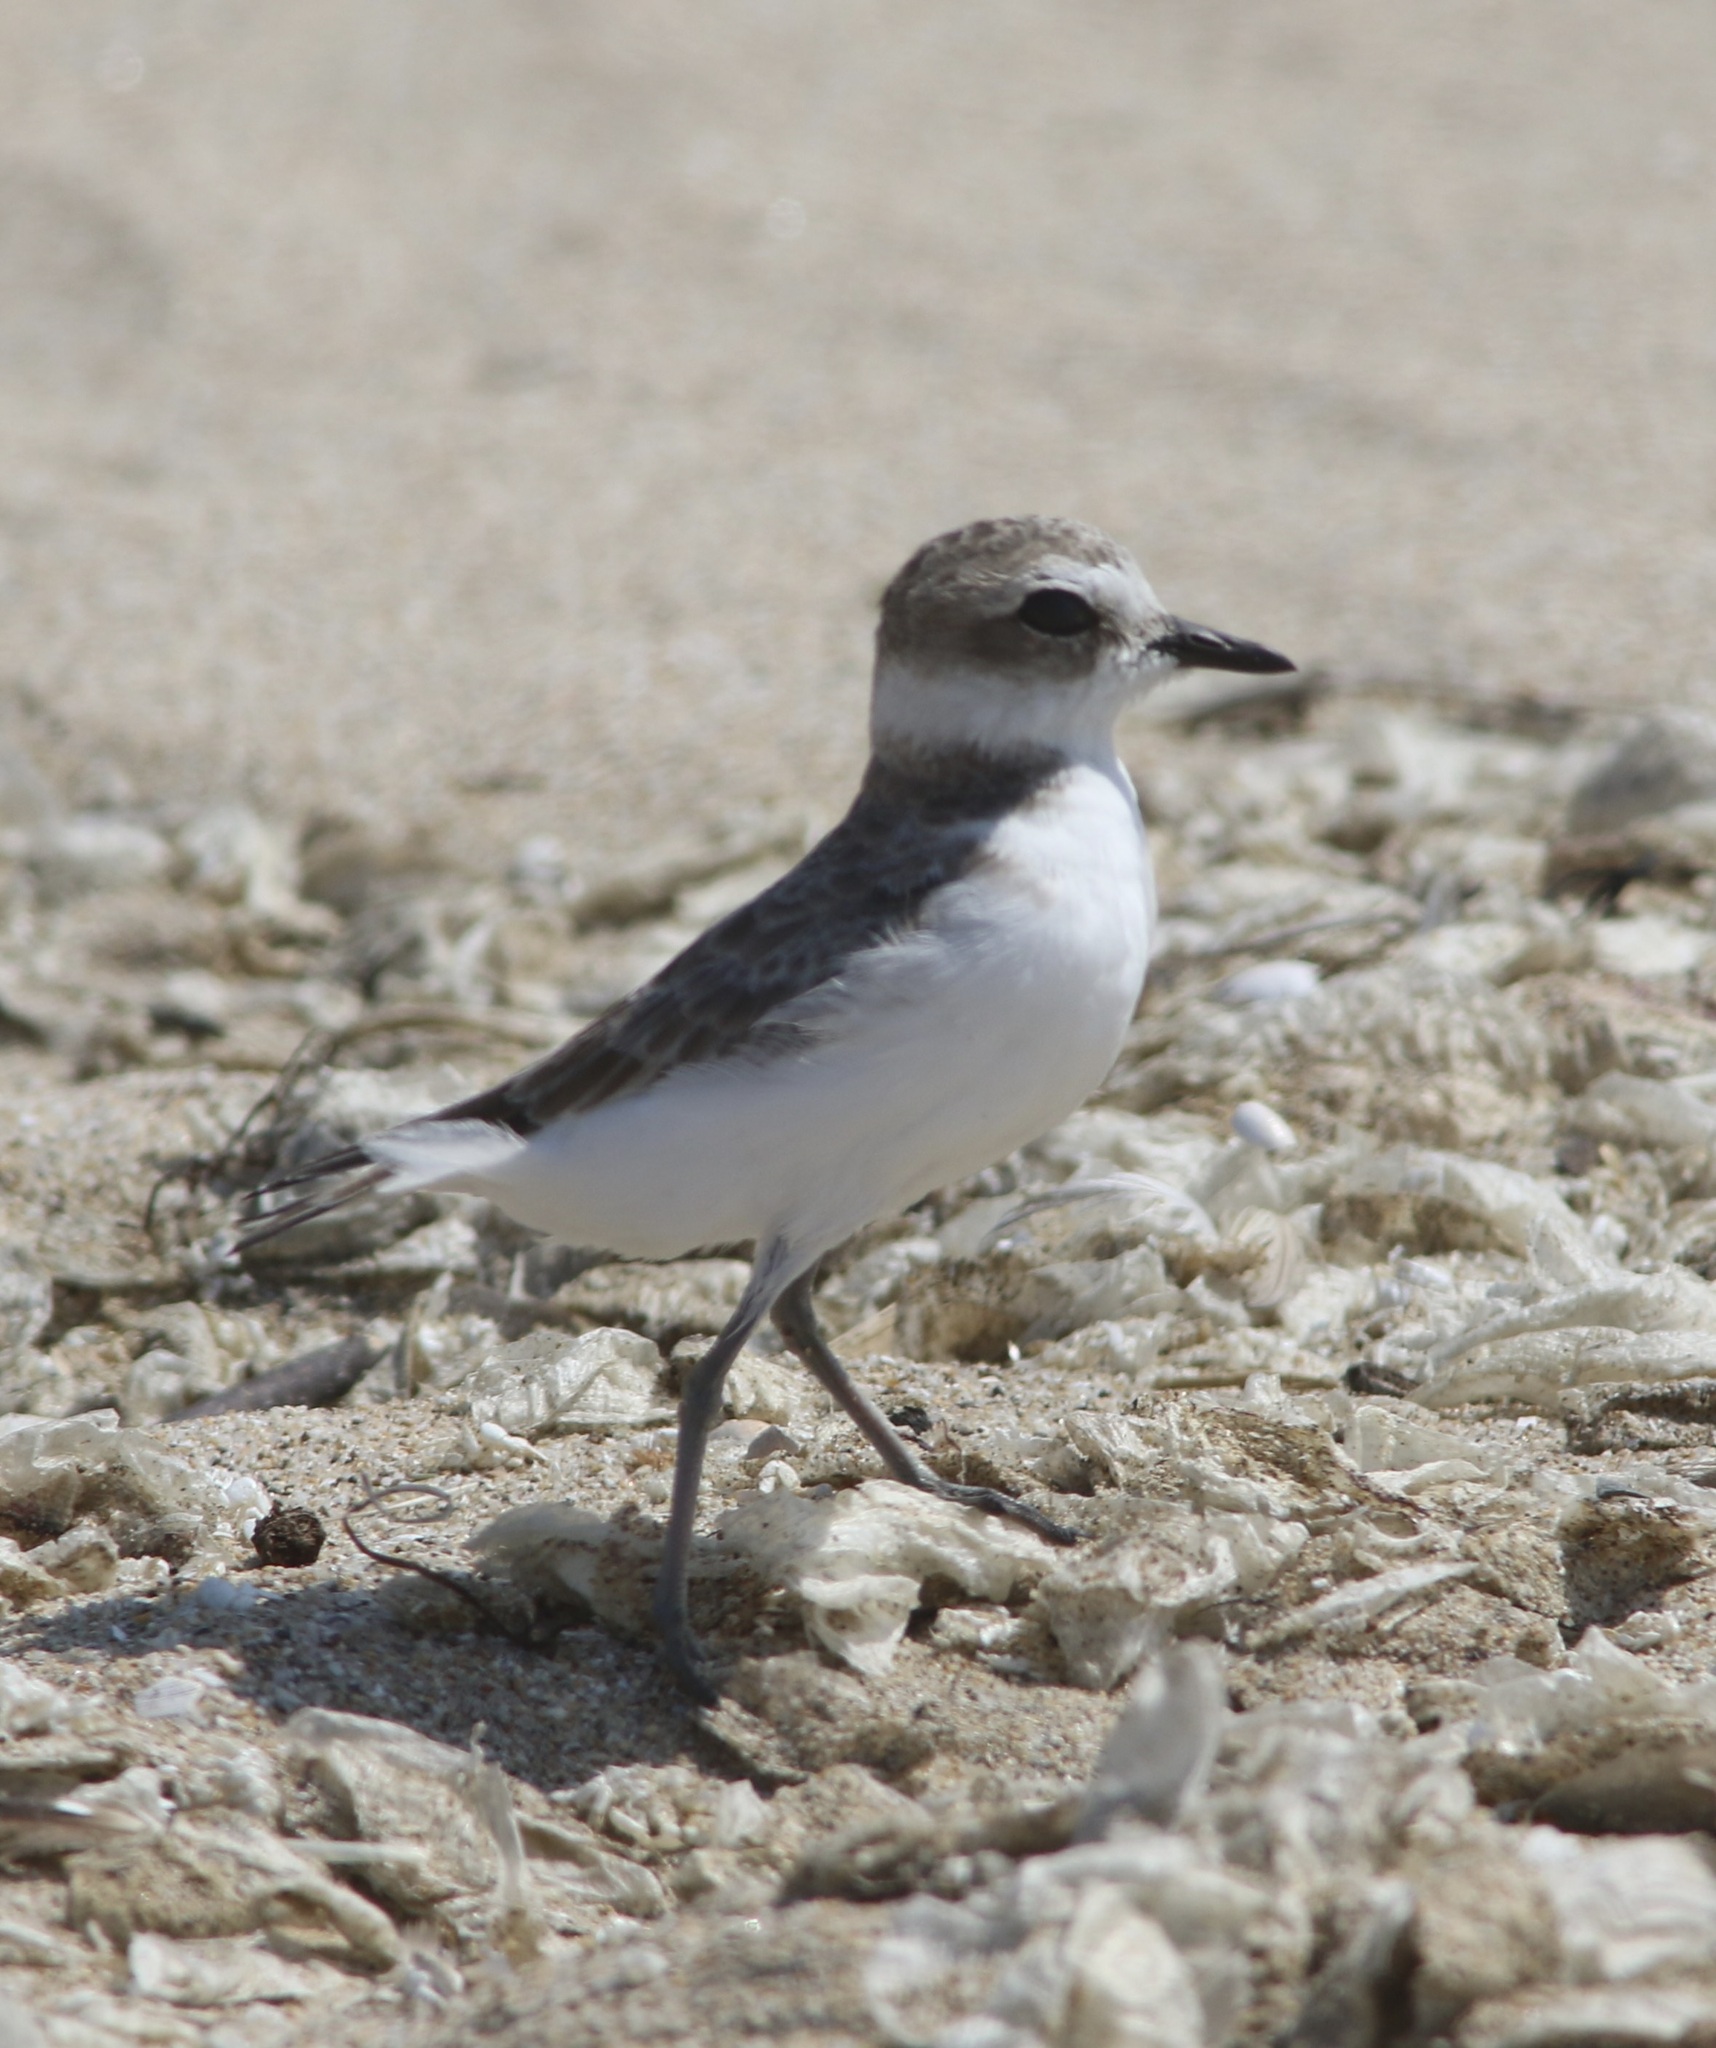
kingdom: Animalia
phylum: Chordata
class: Aves
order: Charadriiformes
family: Charadriidae
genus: Anarhynchus
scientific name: Anarhynchus
